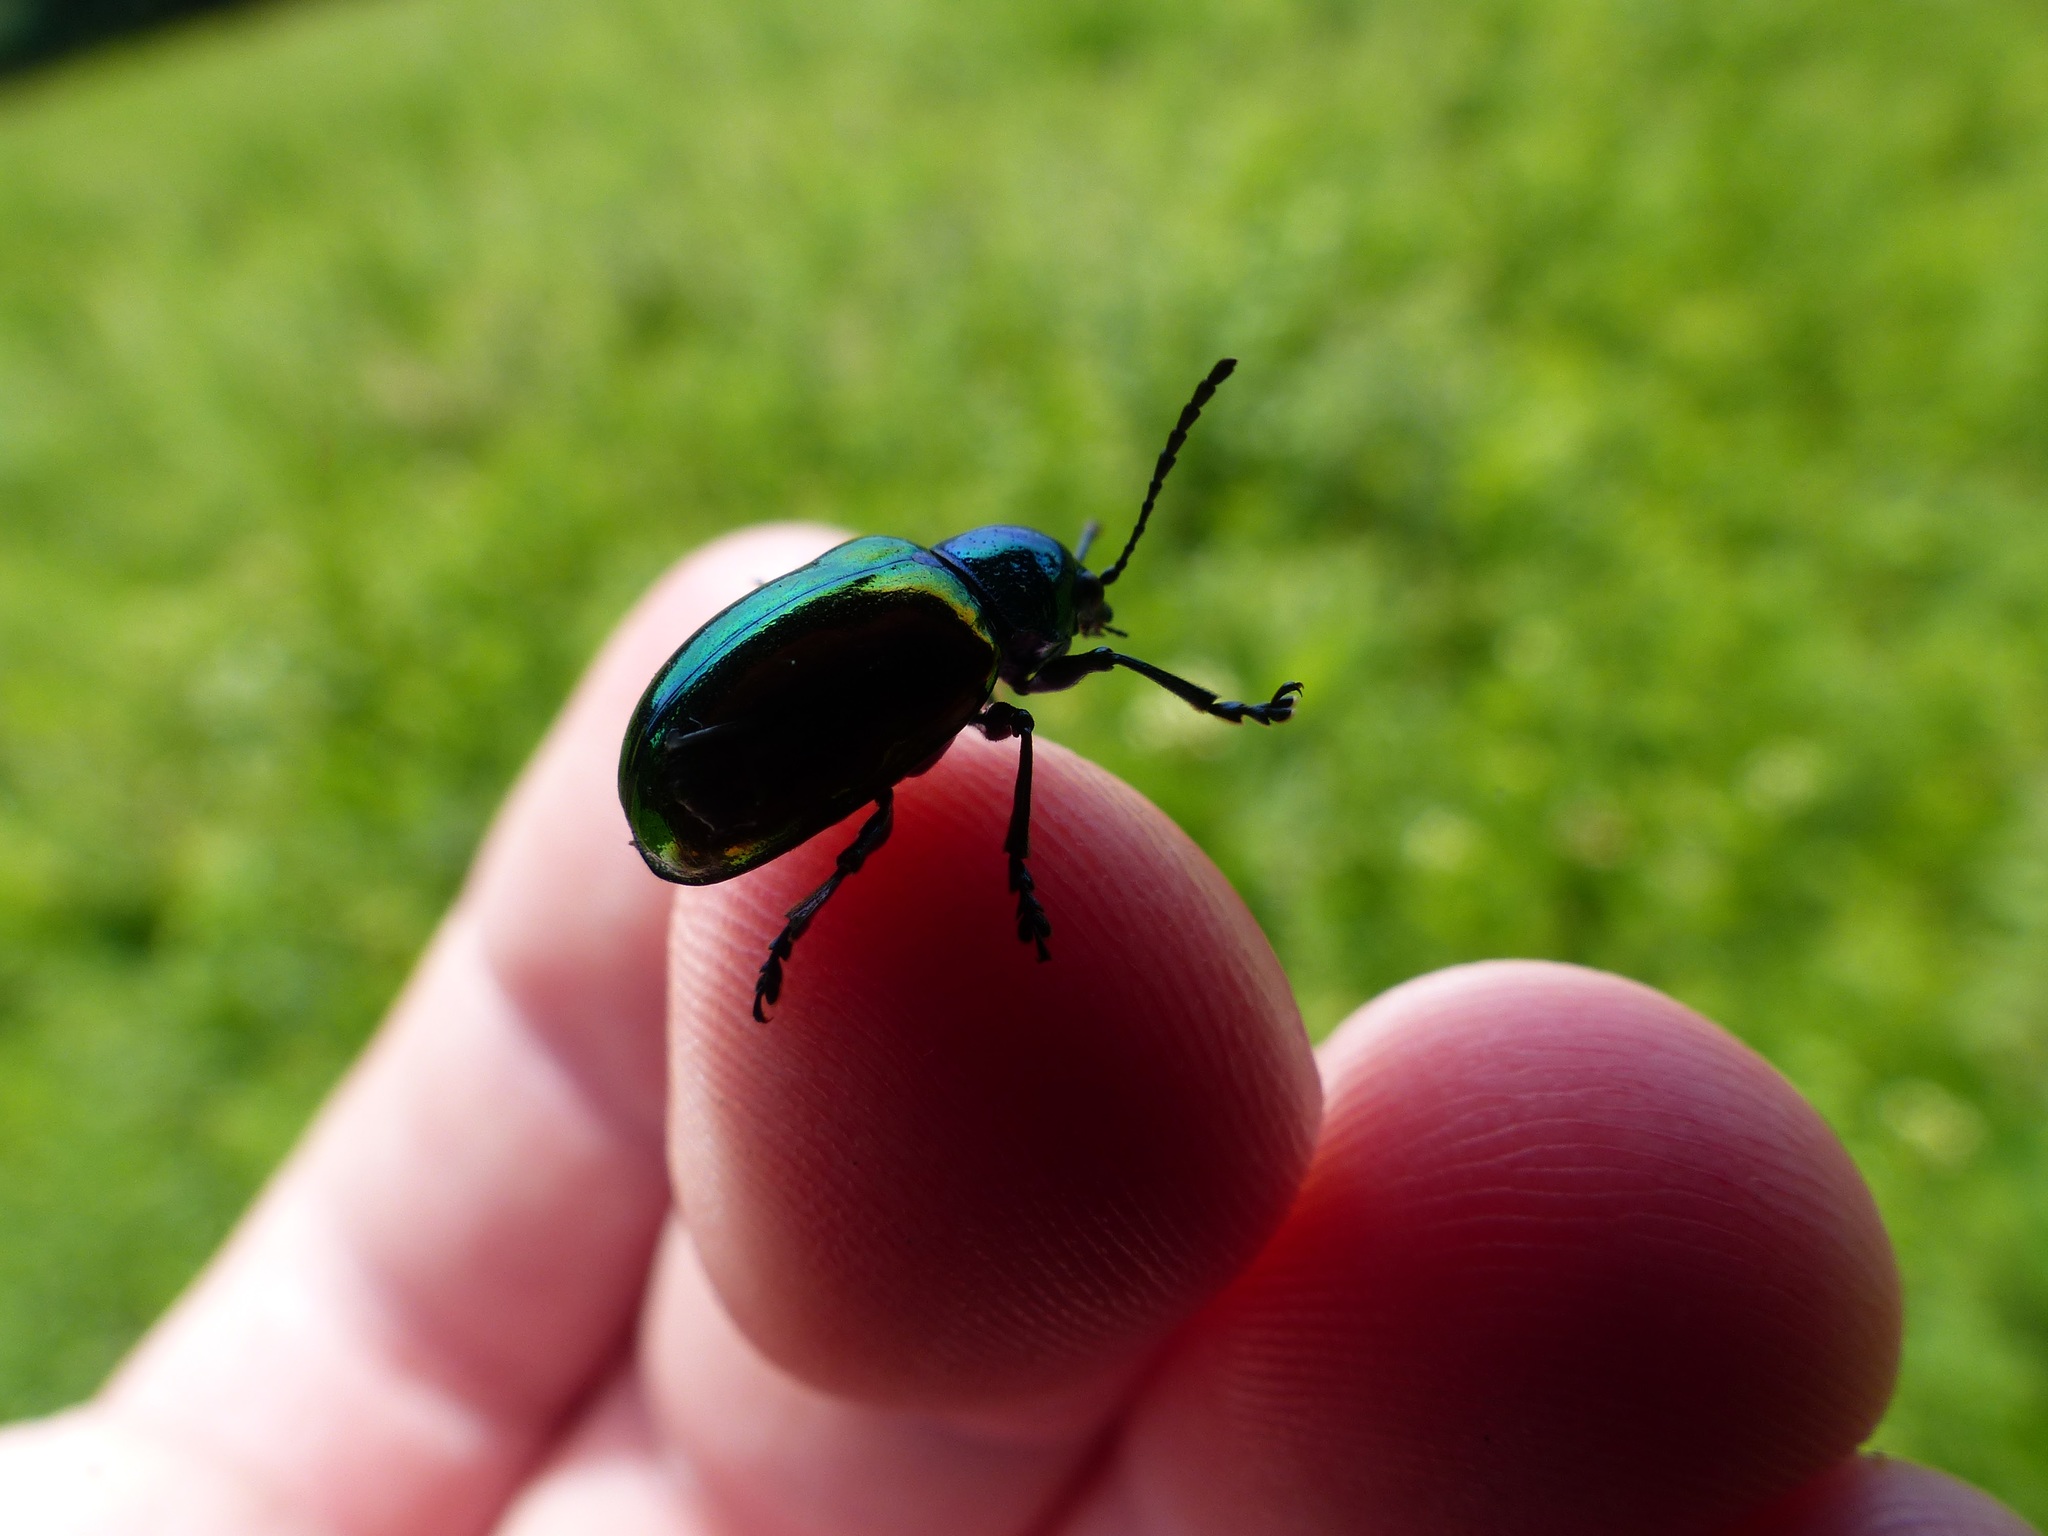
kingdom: Animalia
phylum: Arthropoda
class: Insecta
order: Coleoptera
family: Chrysomelidae
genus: Chrysochus
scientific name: Chrysochus auratus
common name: Dogbane leaf beetle
